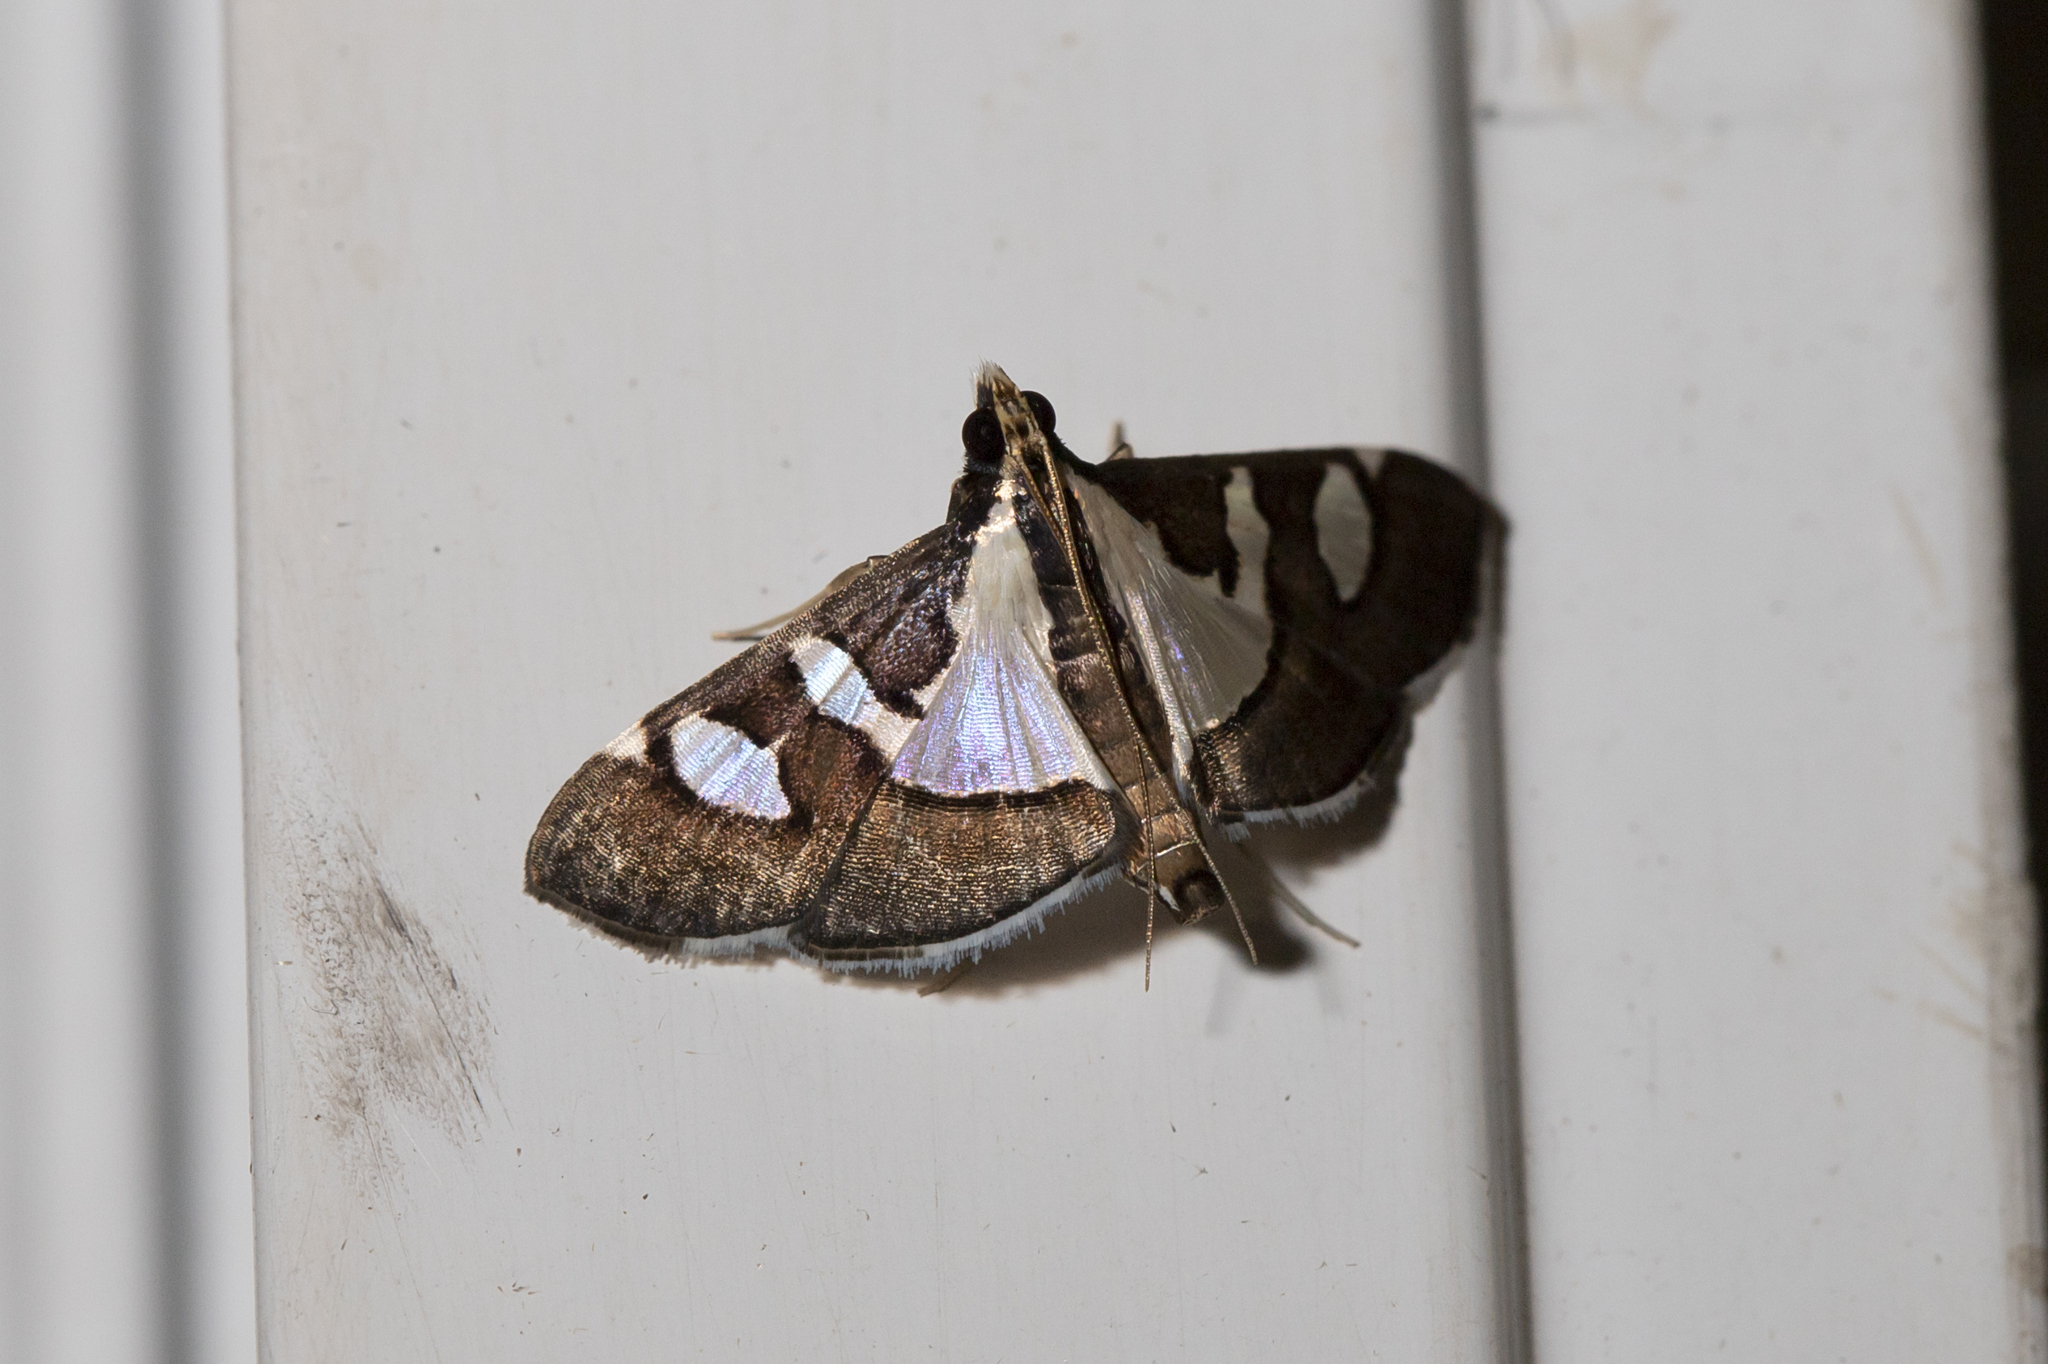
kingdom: Animalia
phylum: Arthropoda
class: Insecta
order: Lepidoptera
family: Crambidae
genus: Glyphodes
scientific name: Glyphodes bicolor
